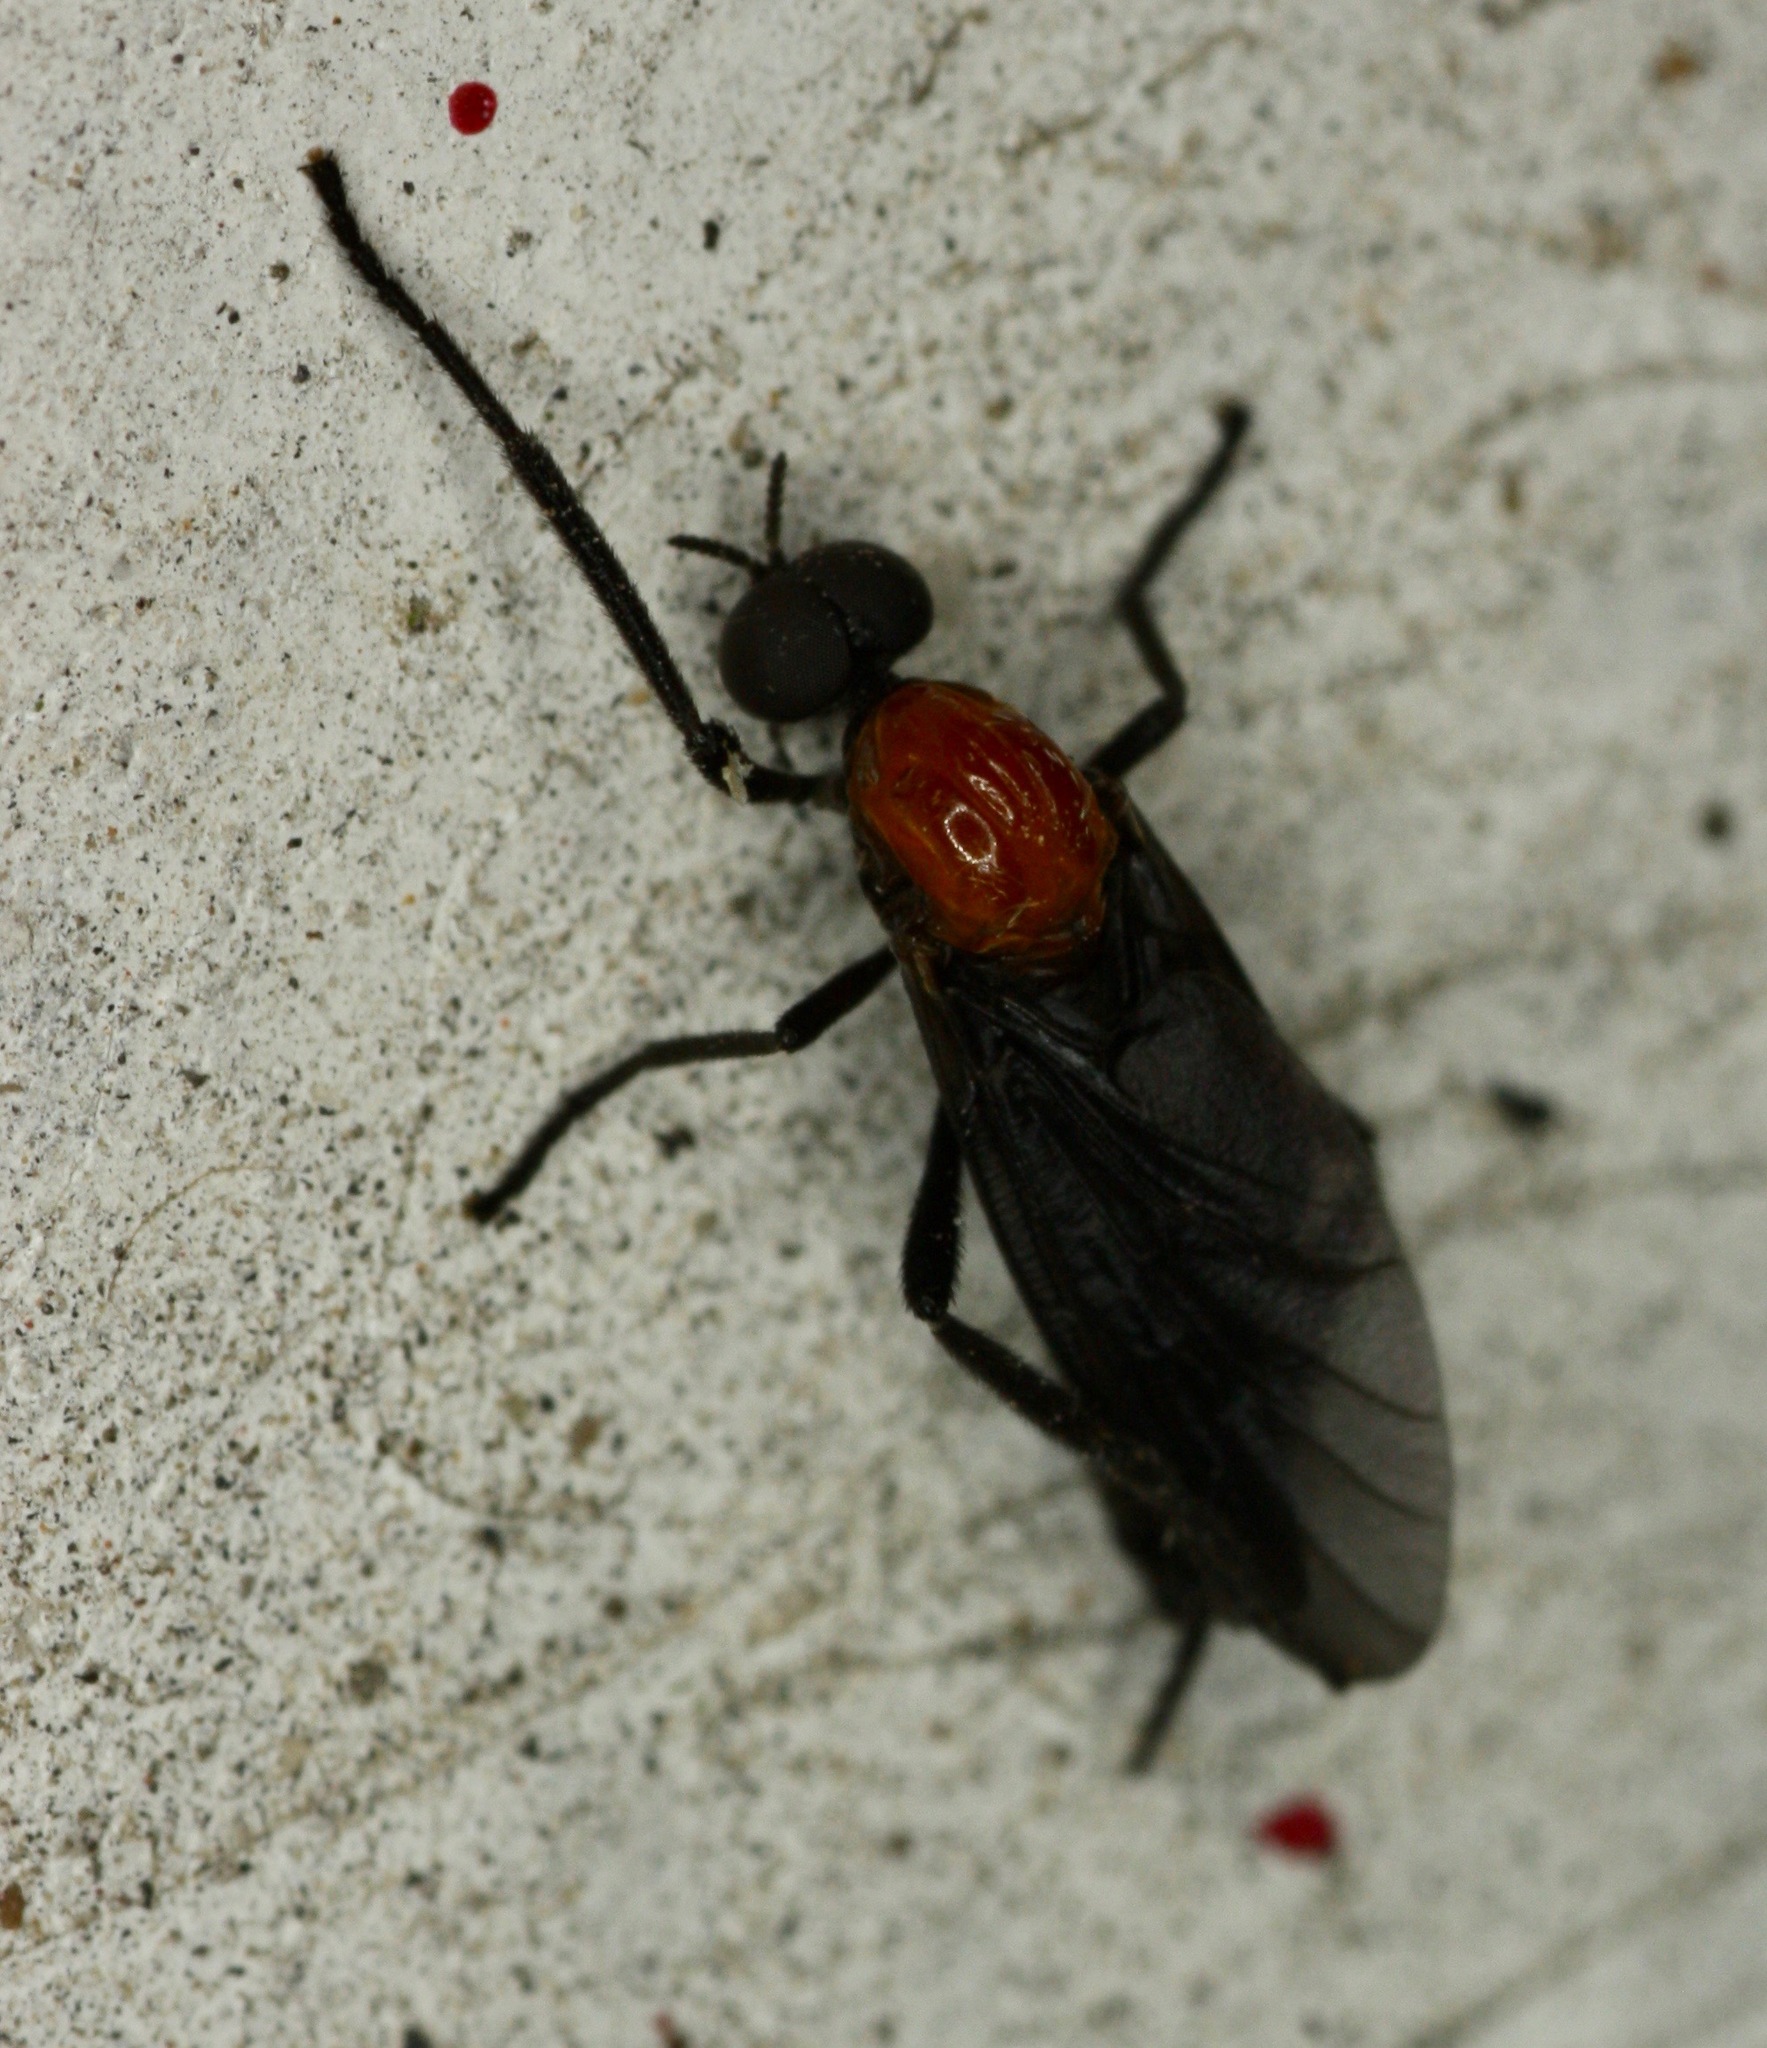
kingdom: Animalia
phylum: Arthropoda
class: Insecta
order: Diptera
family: Bibionidae
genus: Plecia
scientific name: Plecia nearctica
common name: March fly
